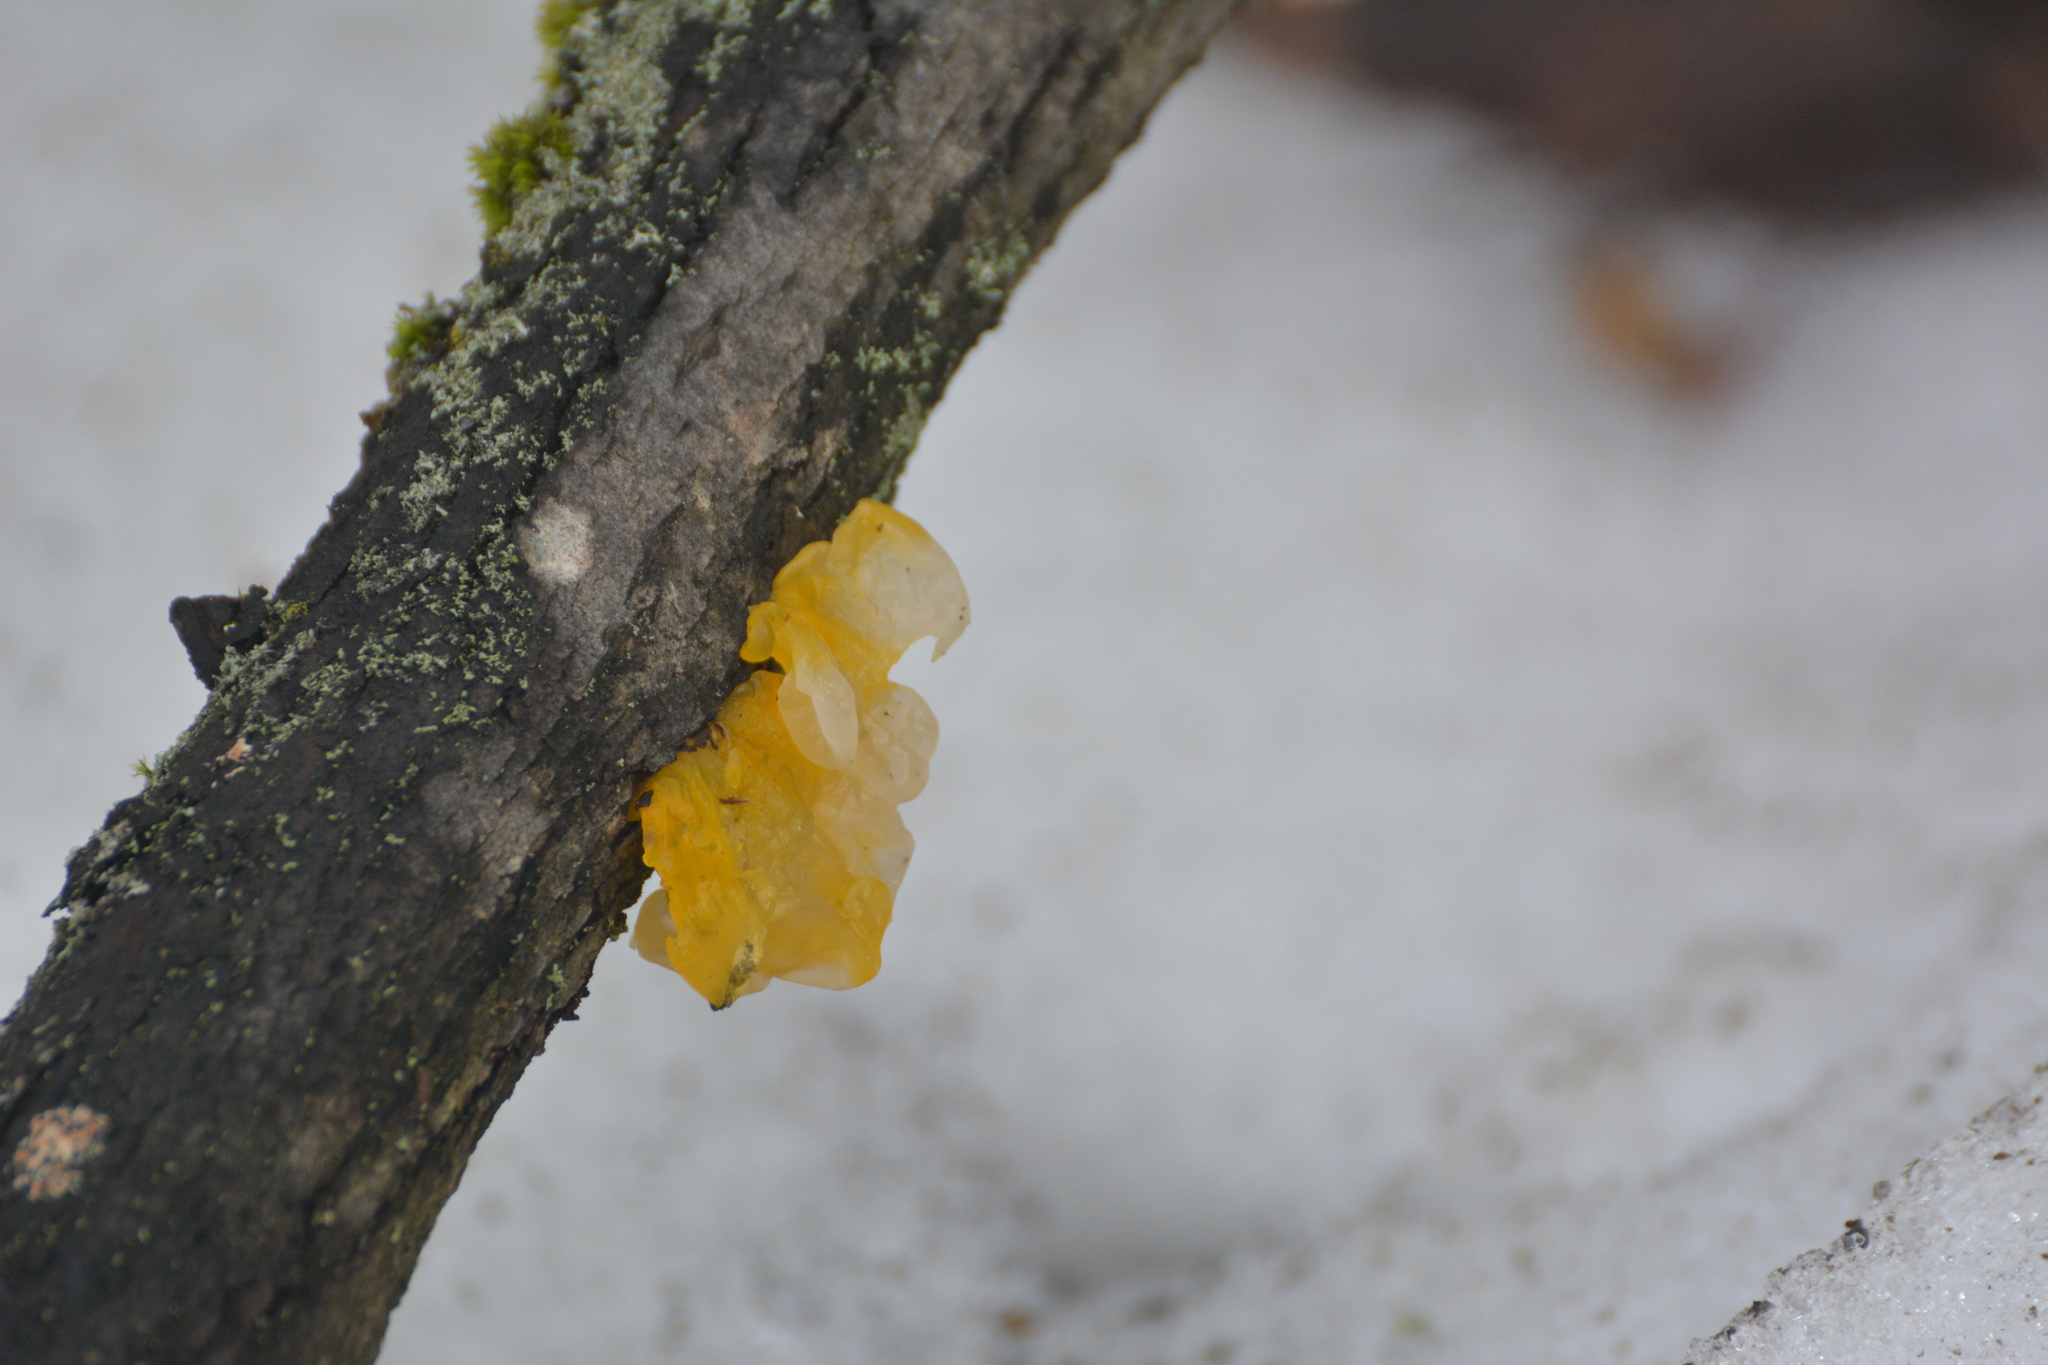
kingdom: Fungi
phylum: Basidiomycota
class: Tremellomycetes
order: Tremellales
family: Tremellaceae
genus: Tremella
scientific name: Tremella mesenterica
